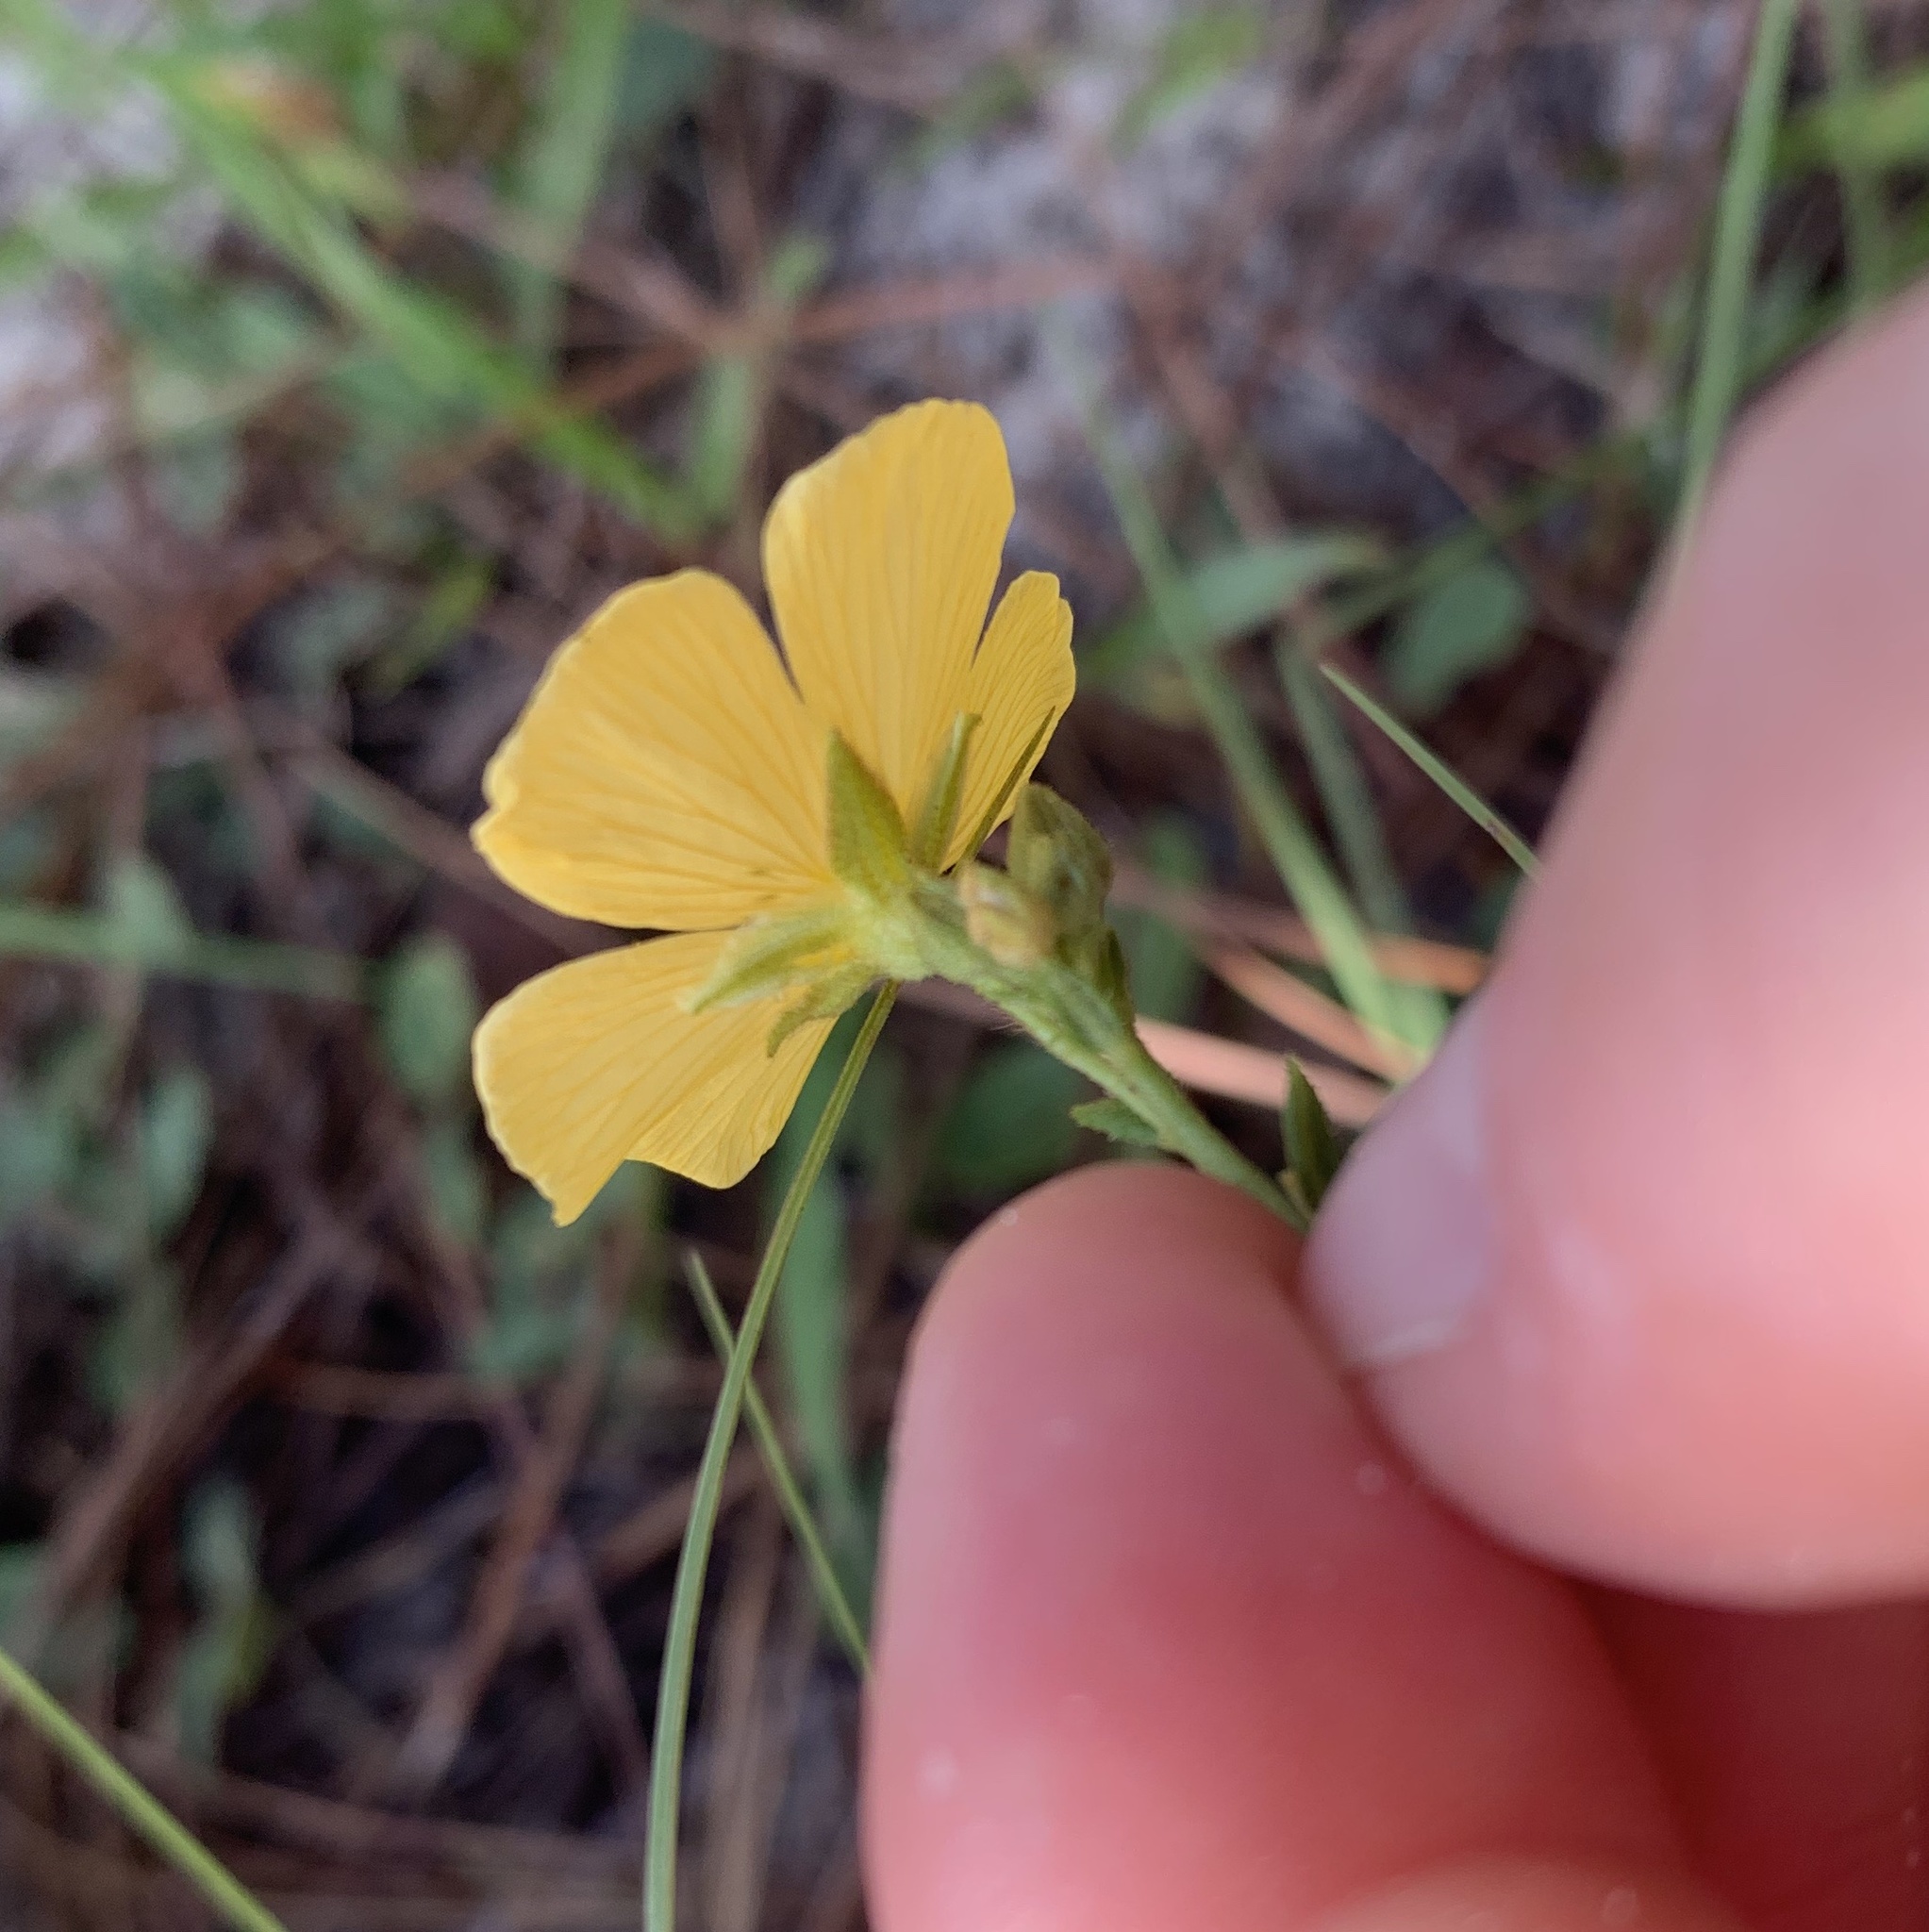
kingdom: Plantae
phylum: Tracheophyta
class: Magnoliopsida
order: Malpighiales
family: Turneraceae
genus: Piriqueta
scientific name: Piriqueta cistoides
